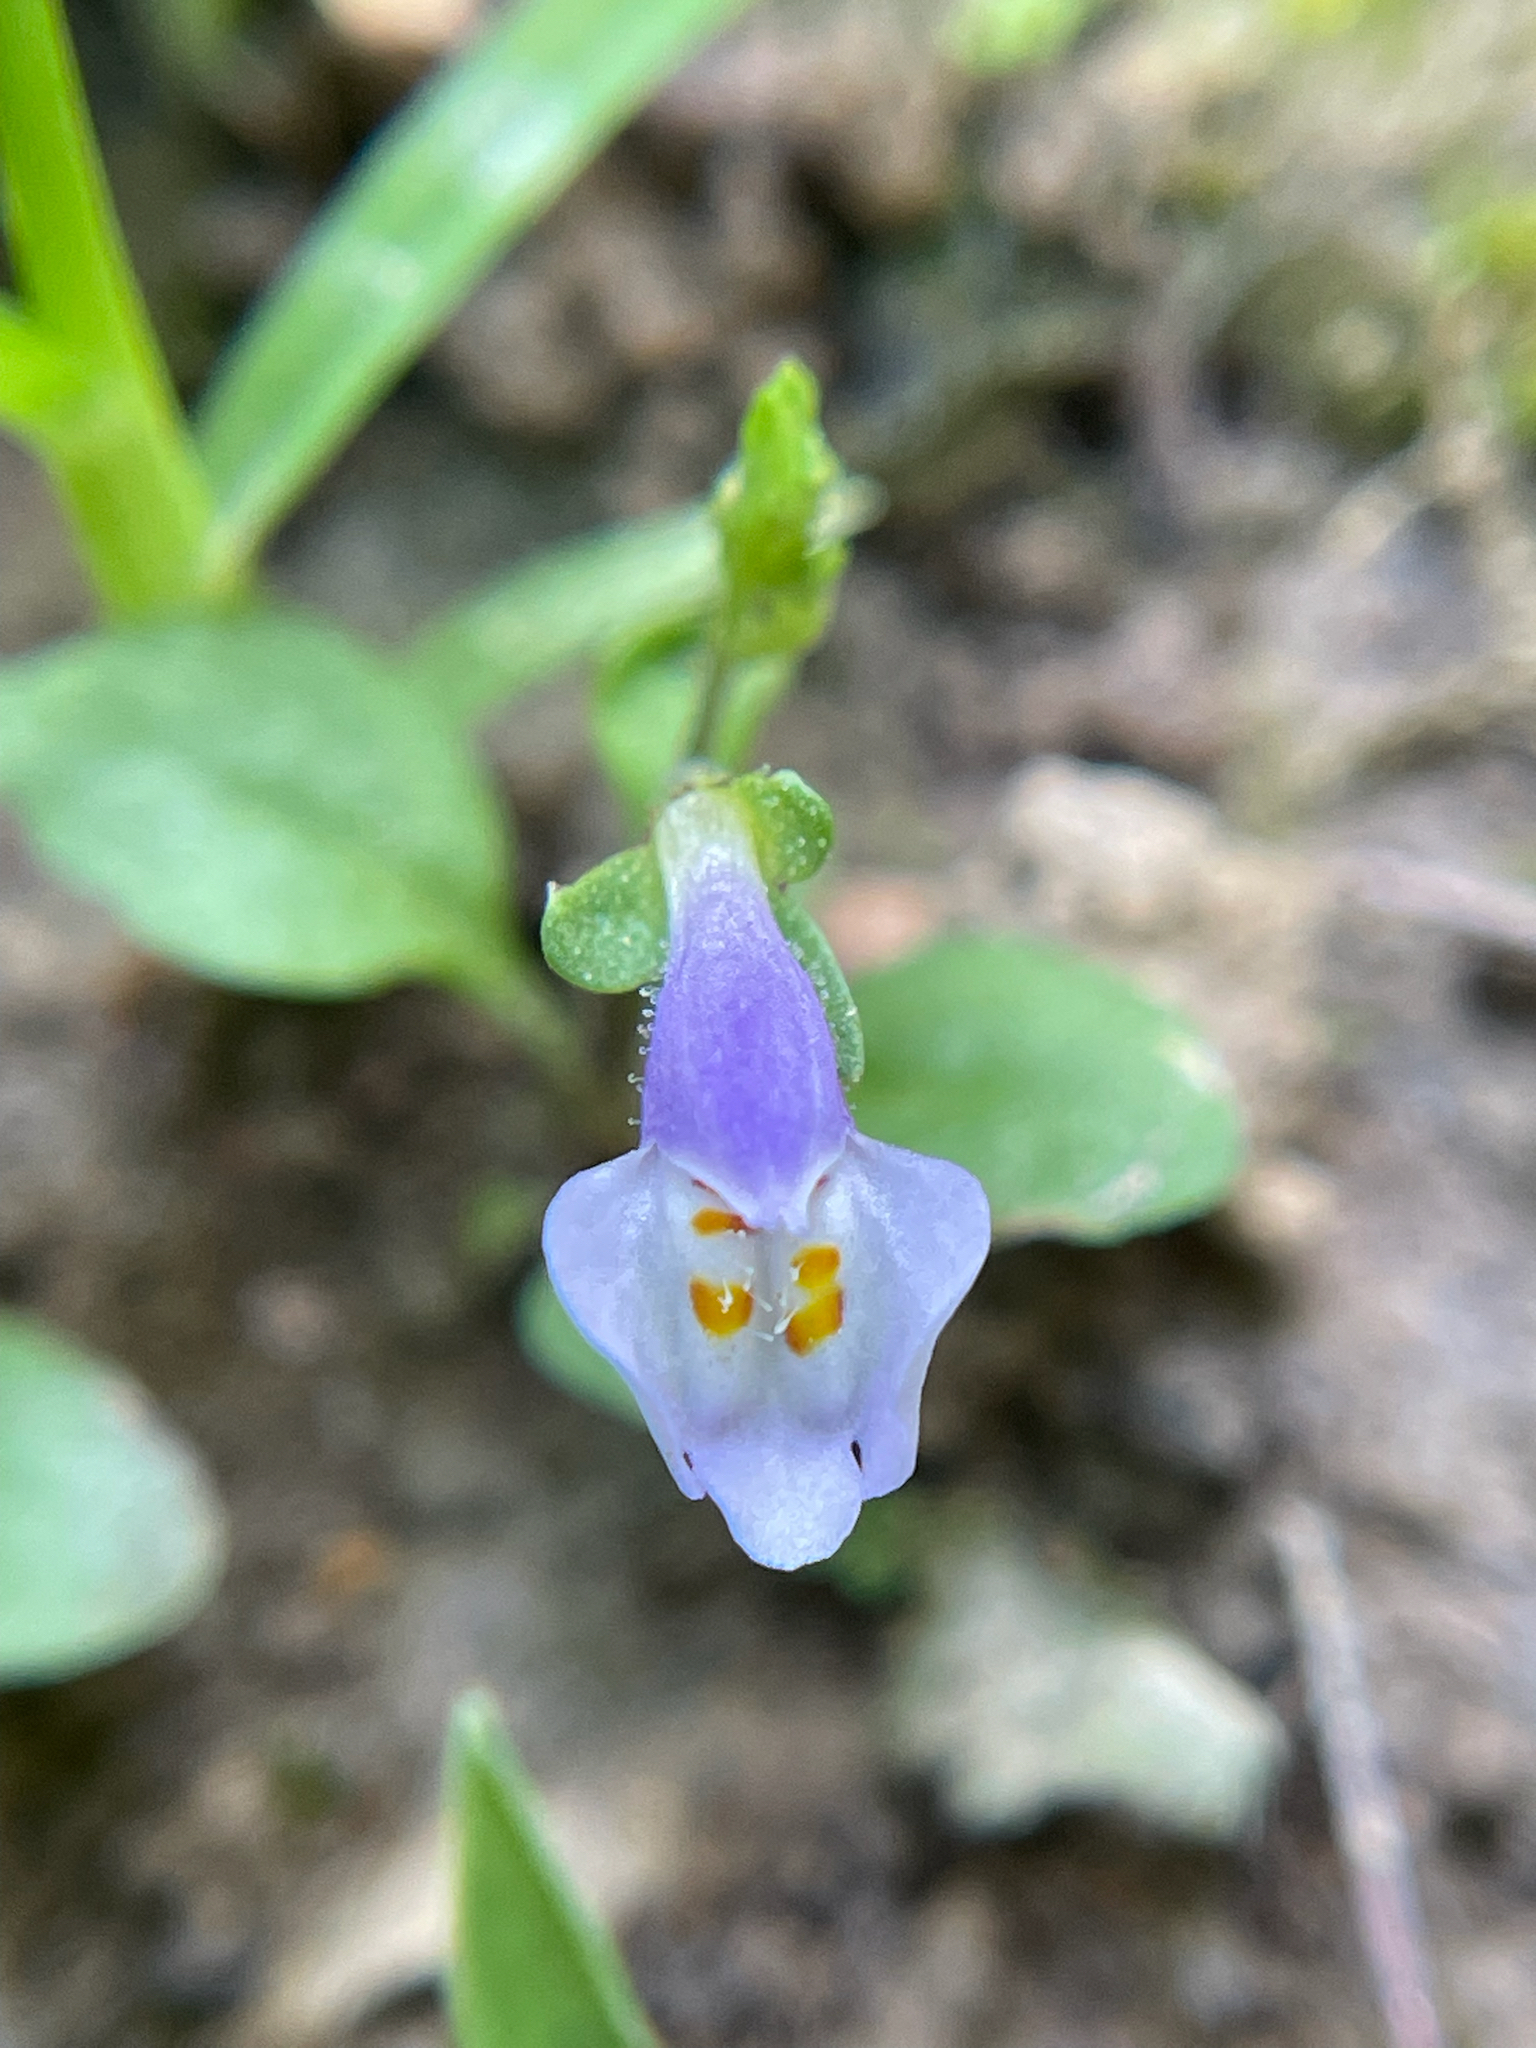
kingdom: Plantae
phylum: Tracheophyta
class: Magnoliopsida
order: Lamiales
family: Mazaceae
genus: Mazus
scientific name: Mazus pumilus
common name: Japanese mazus
